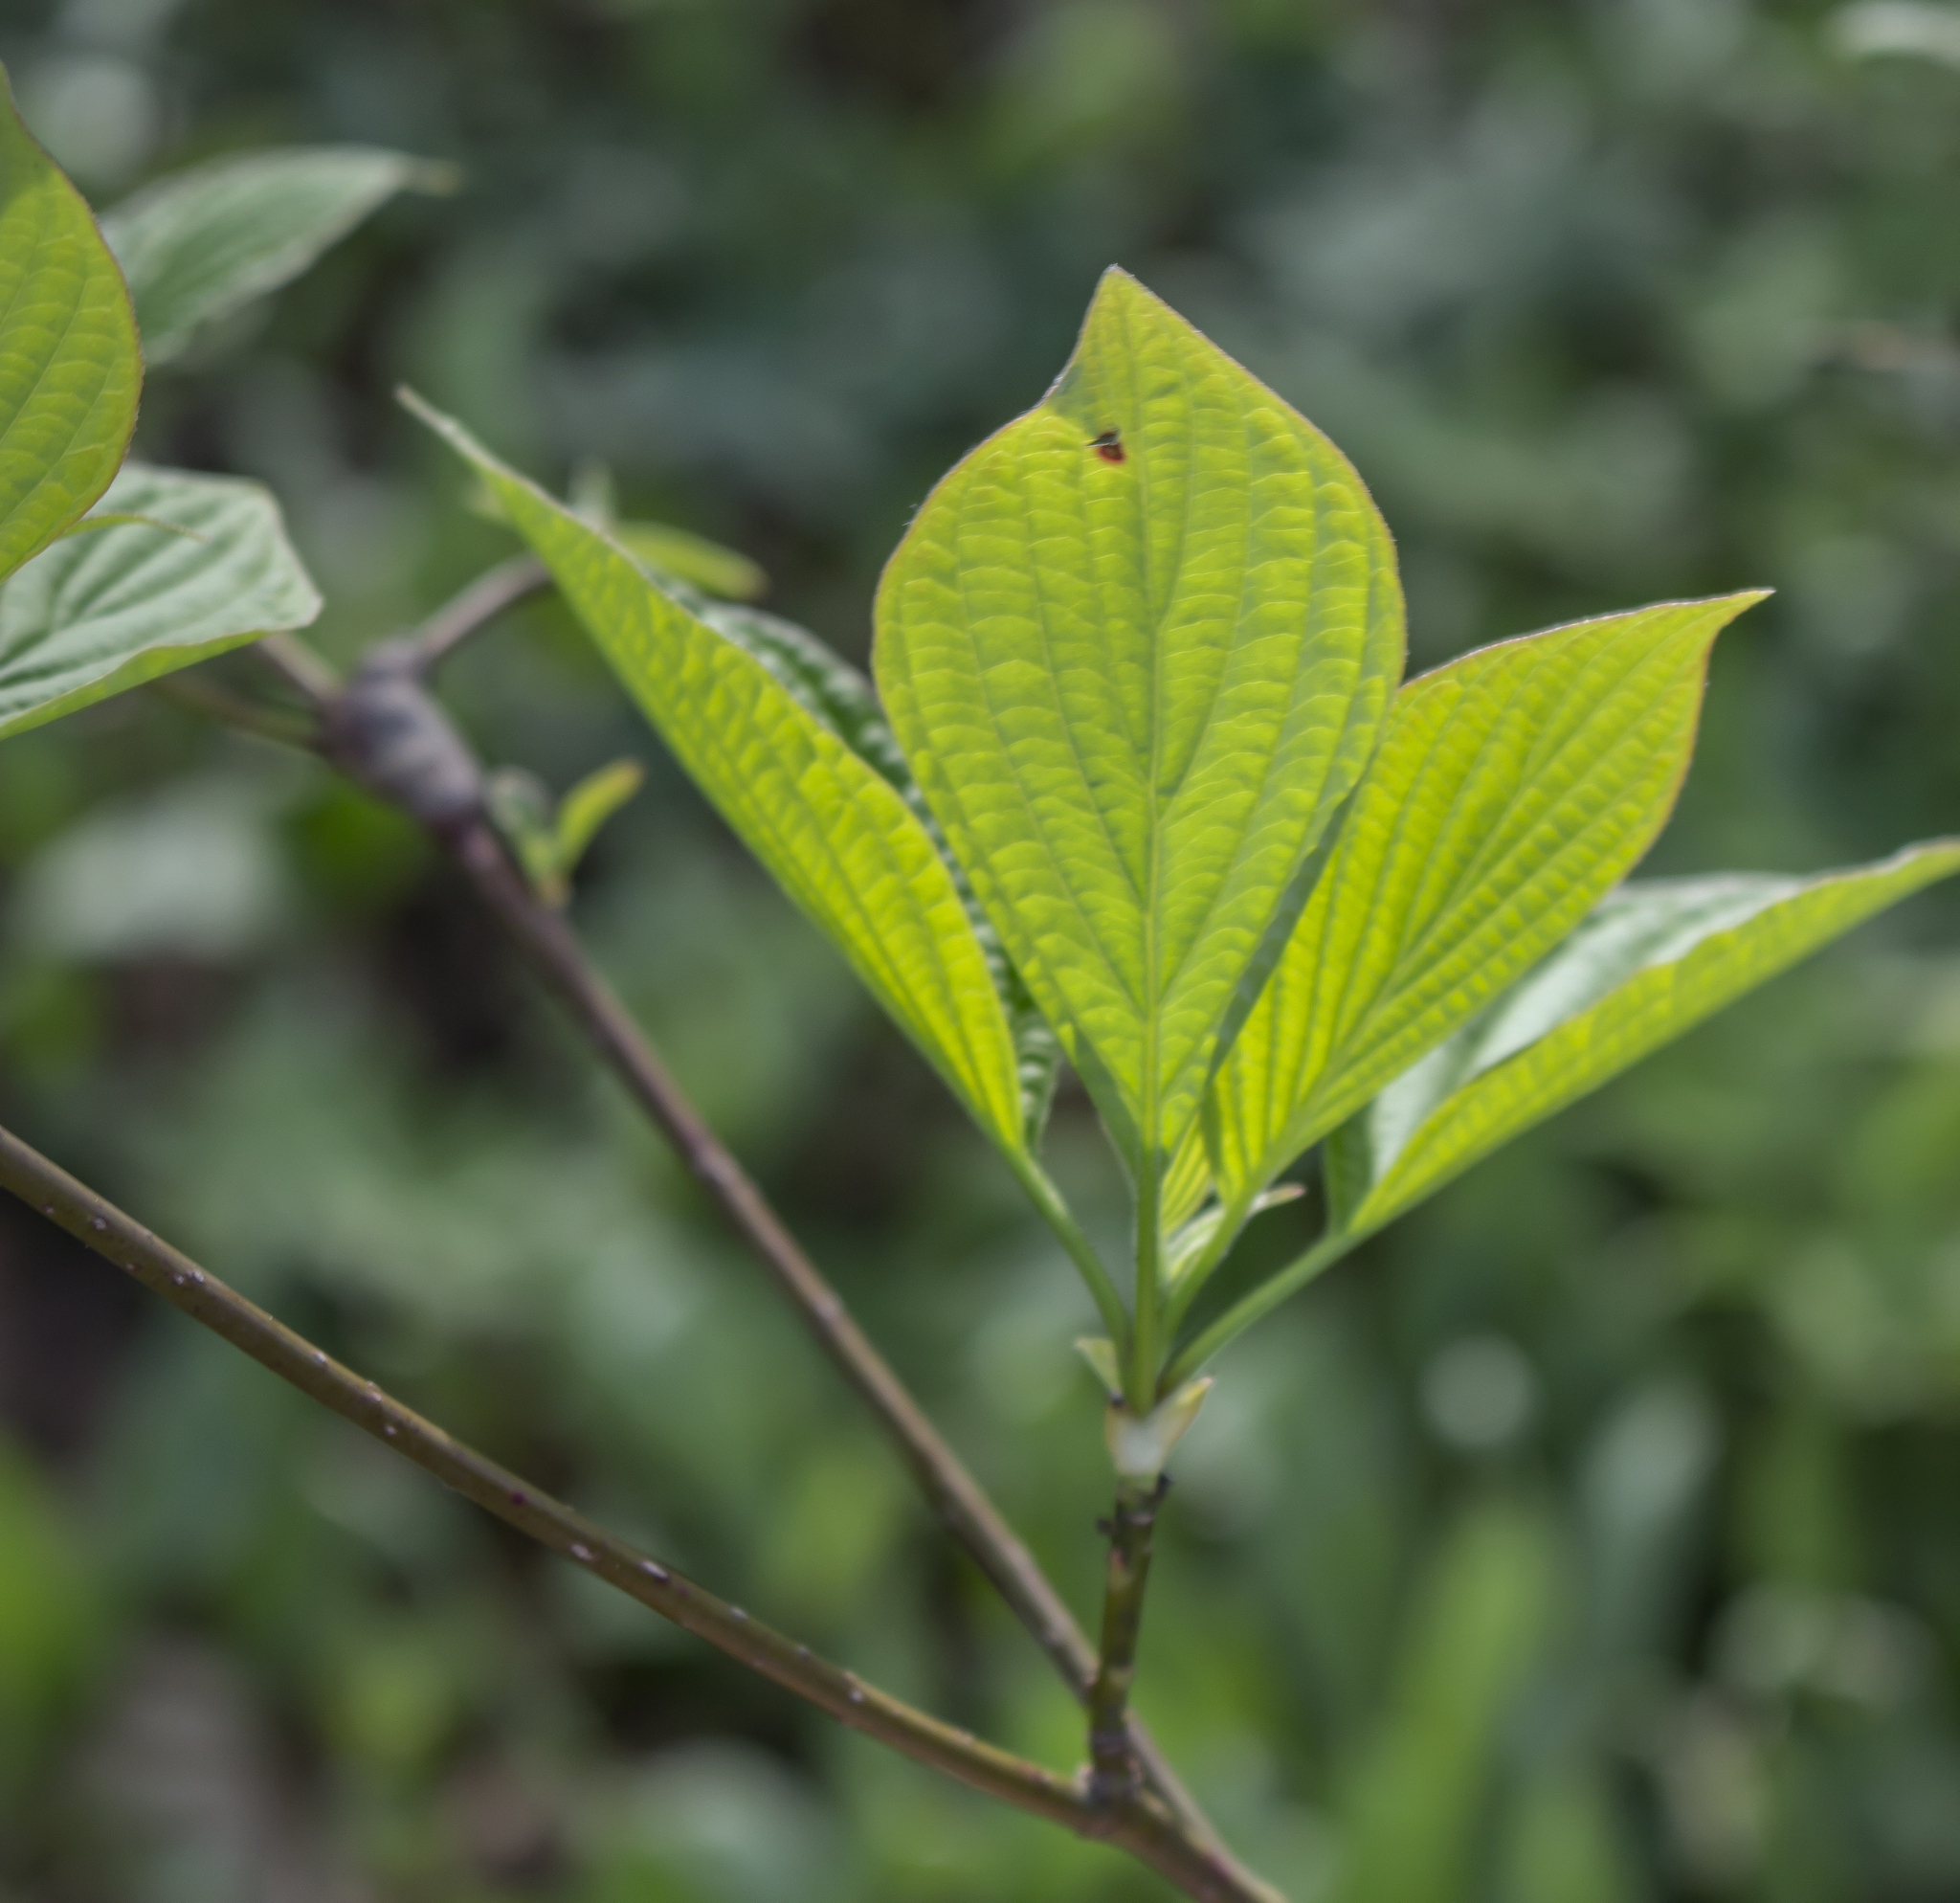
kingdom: Plantae
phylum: Tracheophyta
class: Magnoliopsida
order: Cornales
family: Cornaceae
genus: Cornus
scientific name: Cornus alternifolia
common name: Pagoda dogwood
